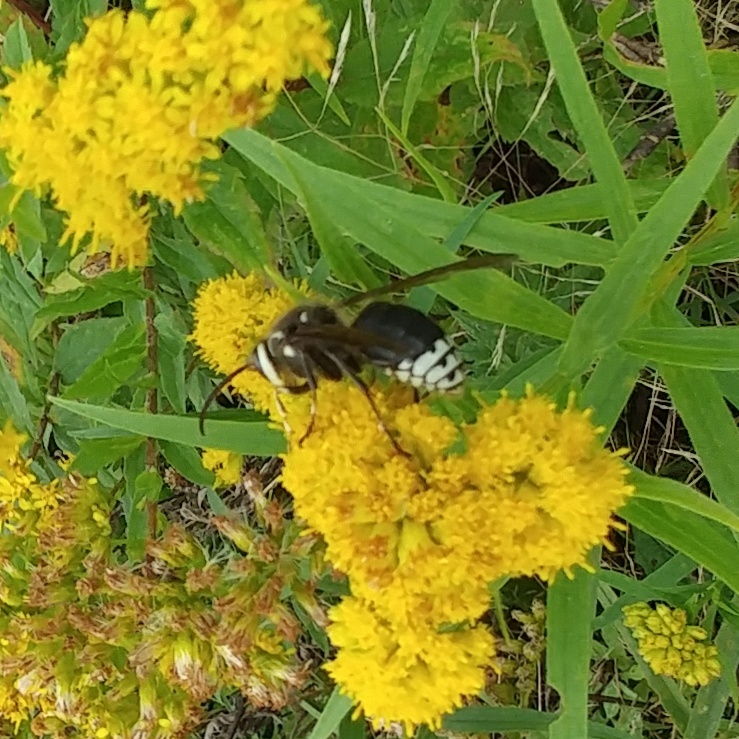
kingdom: Animalia
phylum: Arthropoda
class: Insecta
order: Hymenoptera
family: Vespidae
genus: Dolichovespula
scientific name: Dolichovespula maculata
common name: Bald-faced hornet
